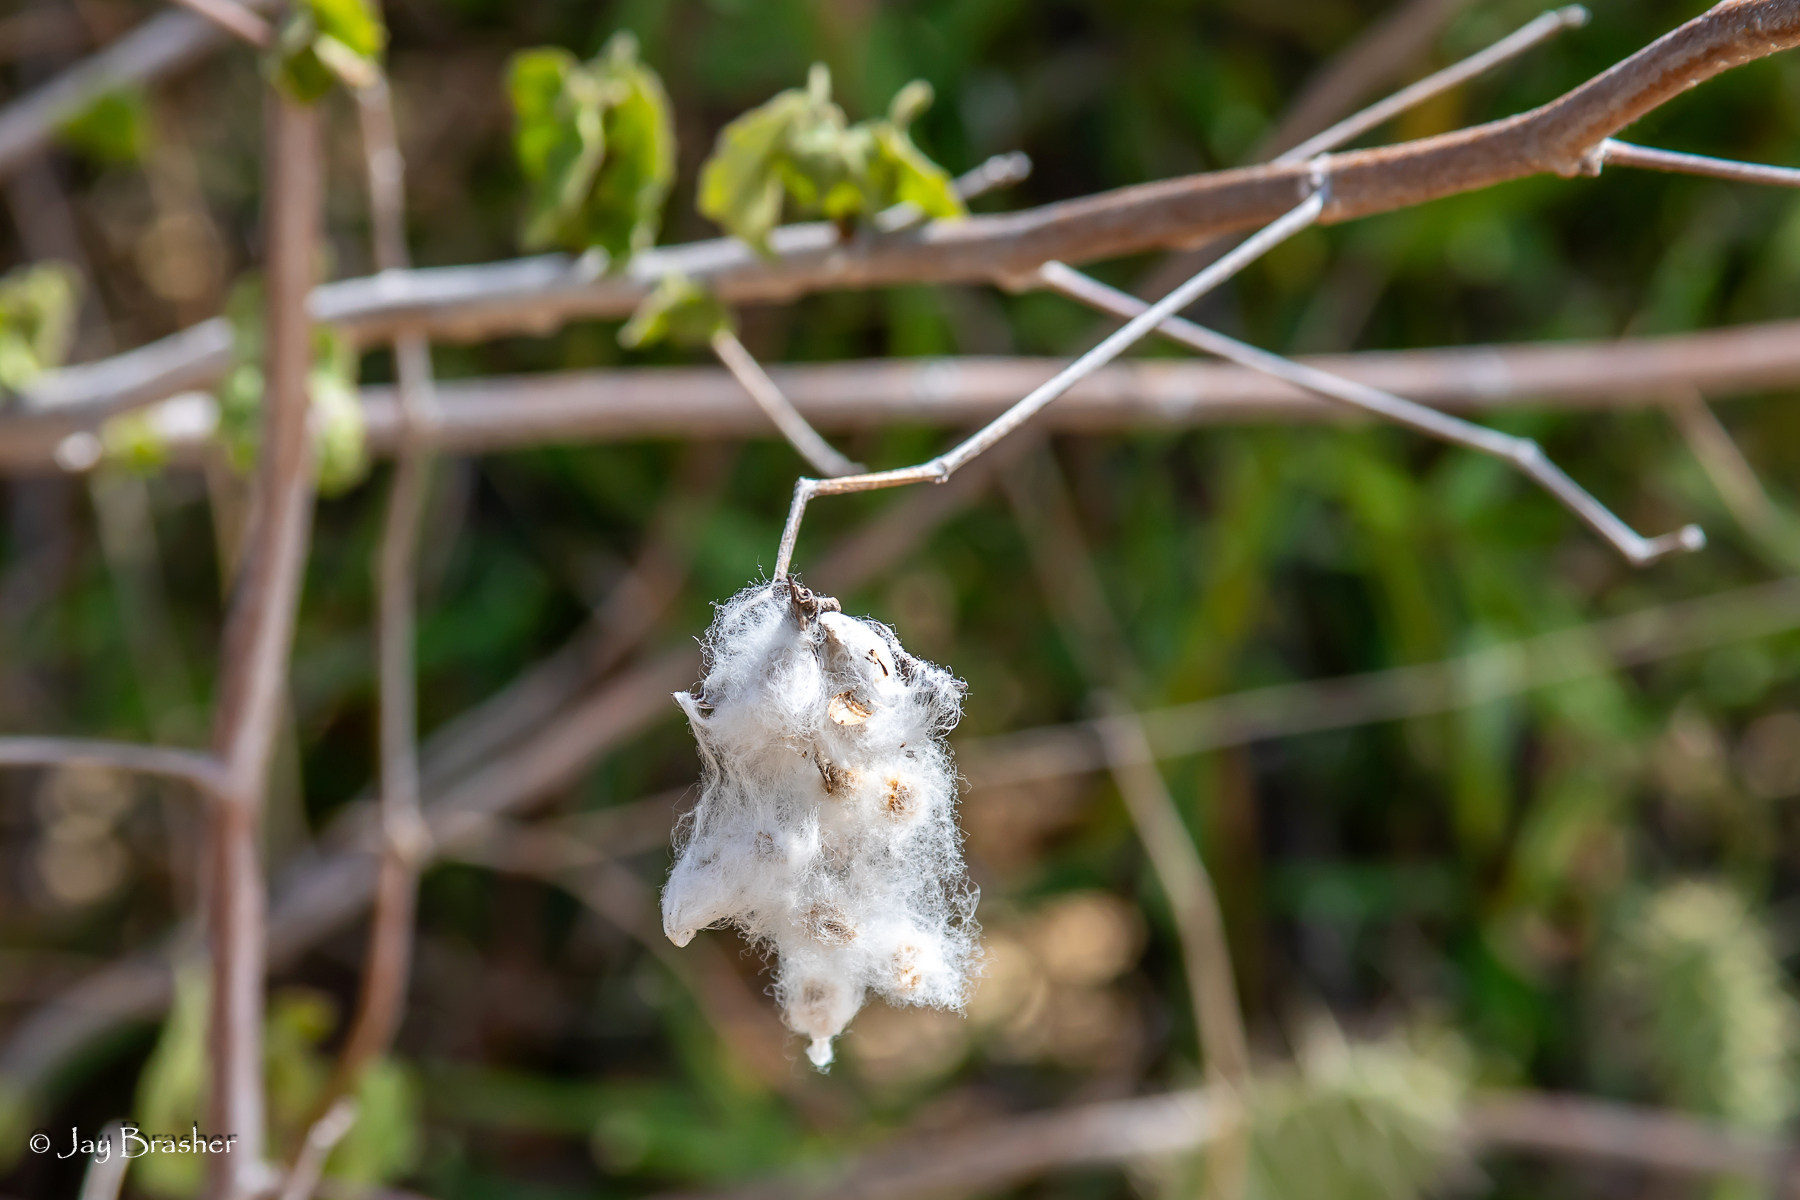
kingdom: Plantae
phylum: Tracheophyta
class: Magnoliopsida
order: Malvales
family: Malvaceae
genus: Gossypium
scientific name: Gossypium hirsutum
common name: Cotton
